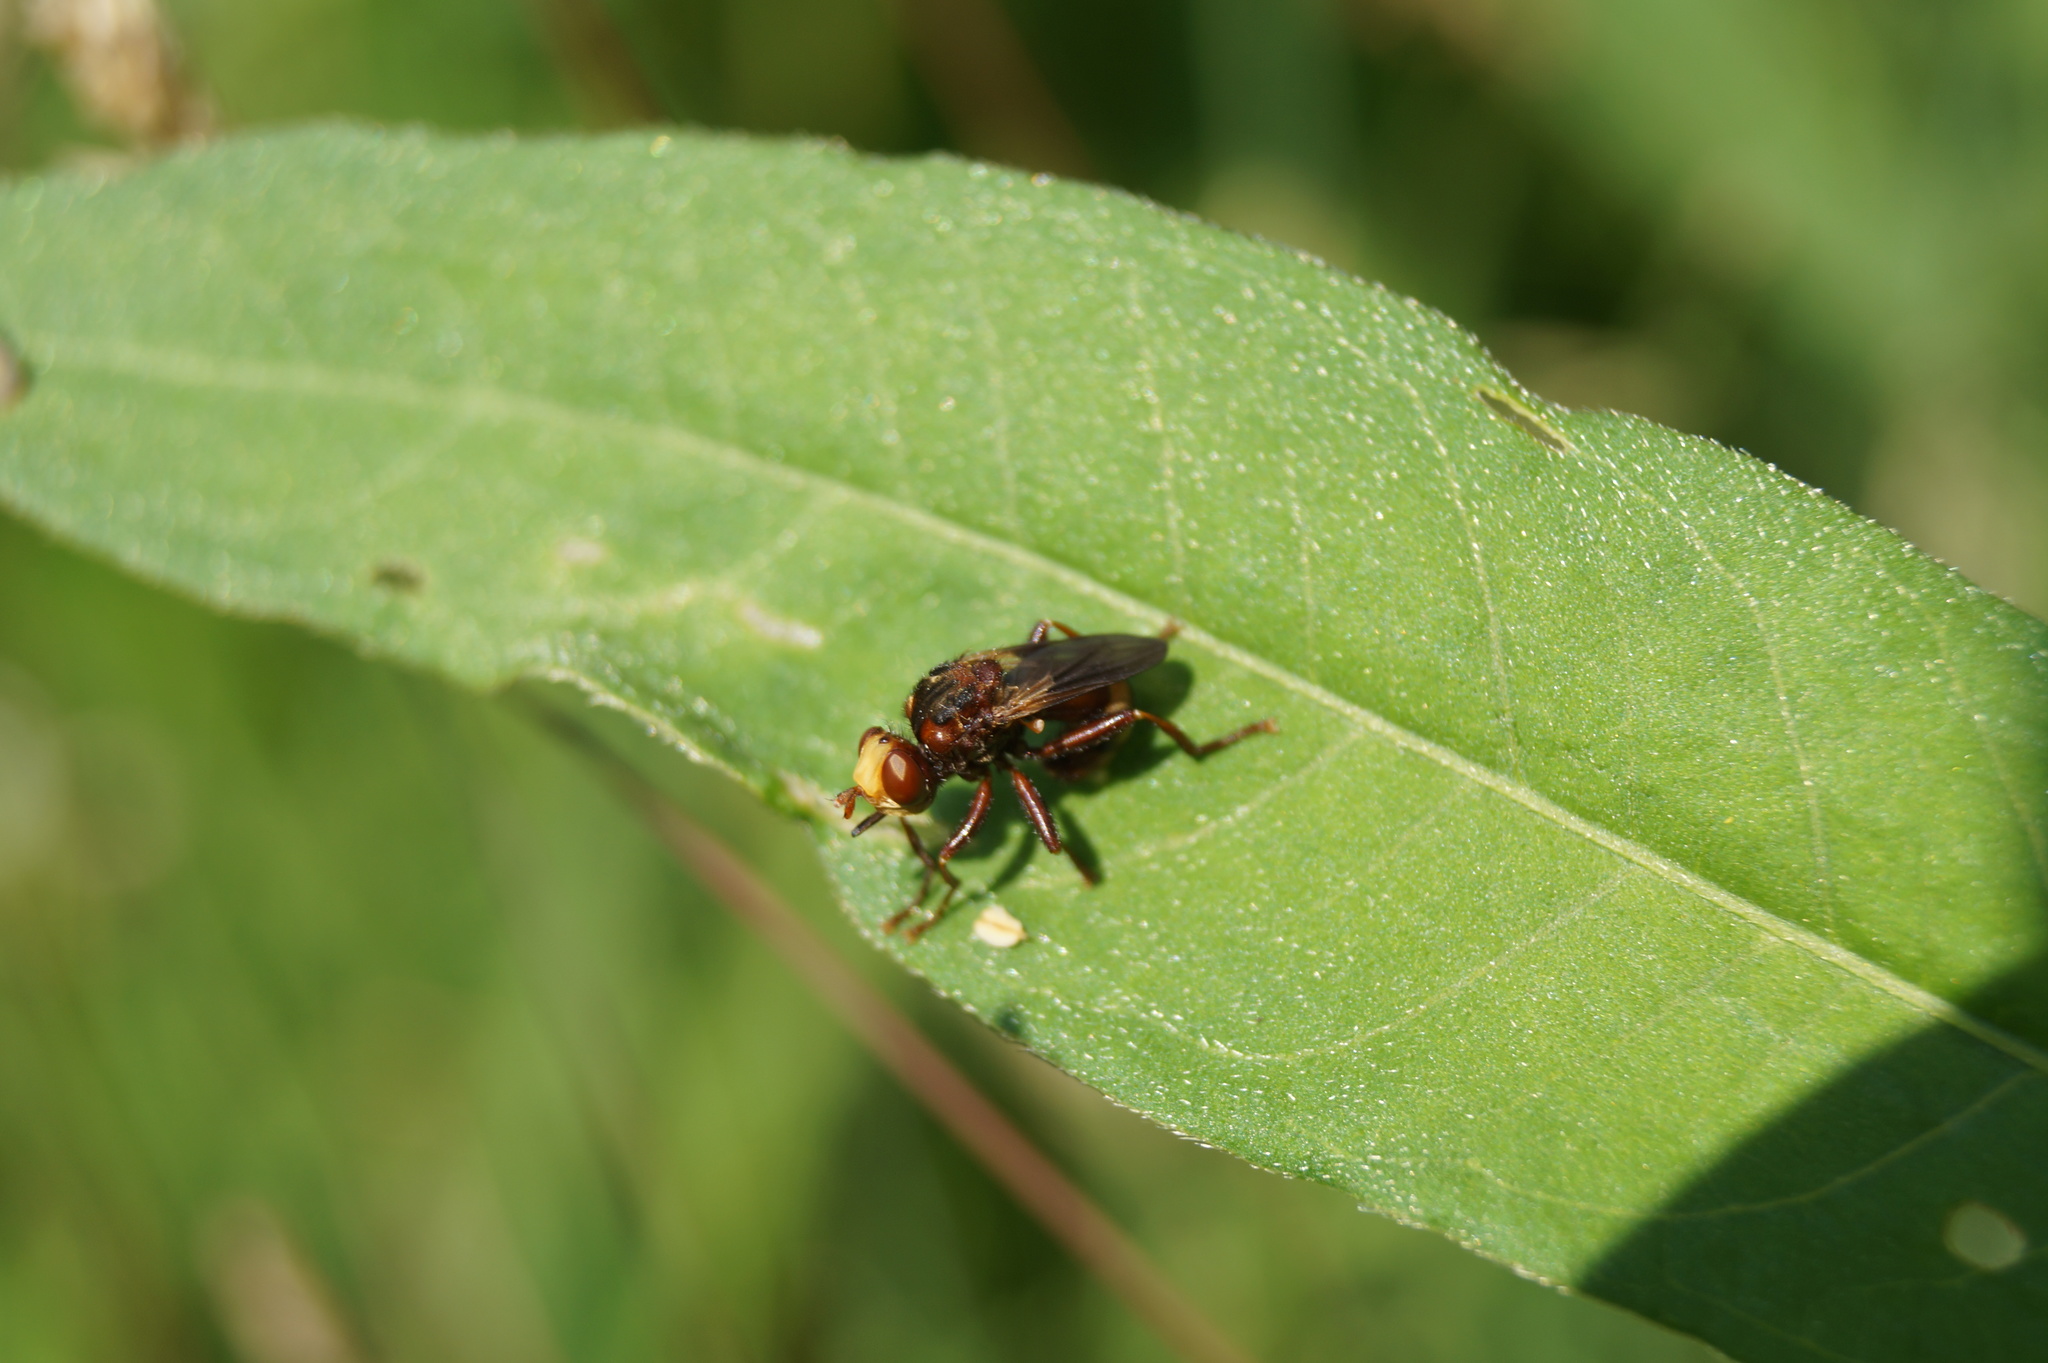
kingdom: Animalia
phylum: Arthropoda
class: Insecta
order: Diptera
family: Conopidae
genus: Sicus
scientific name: Sicus ferrugineus
